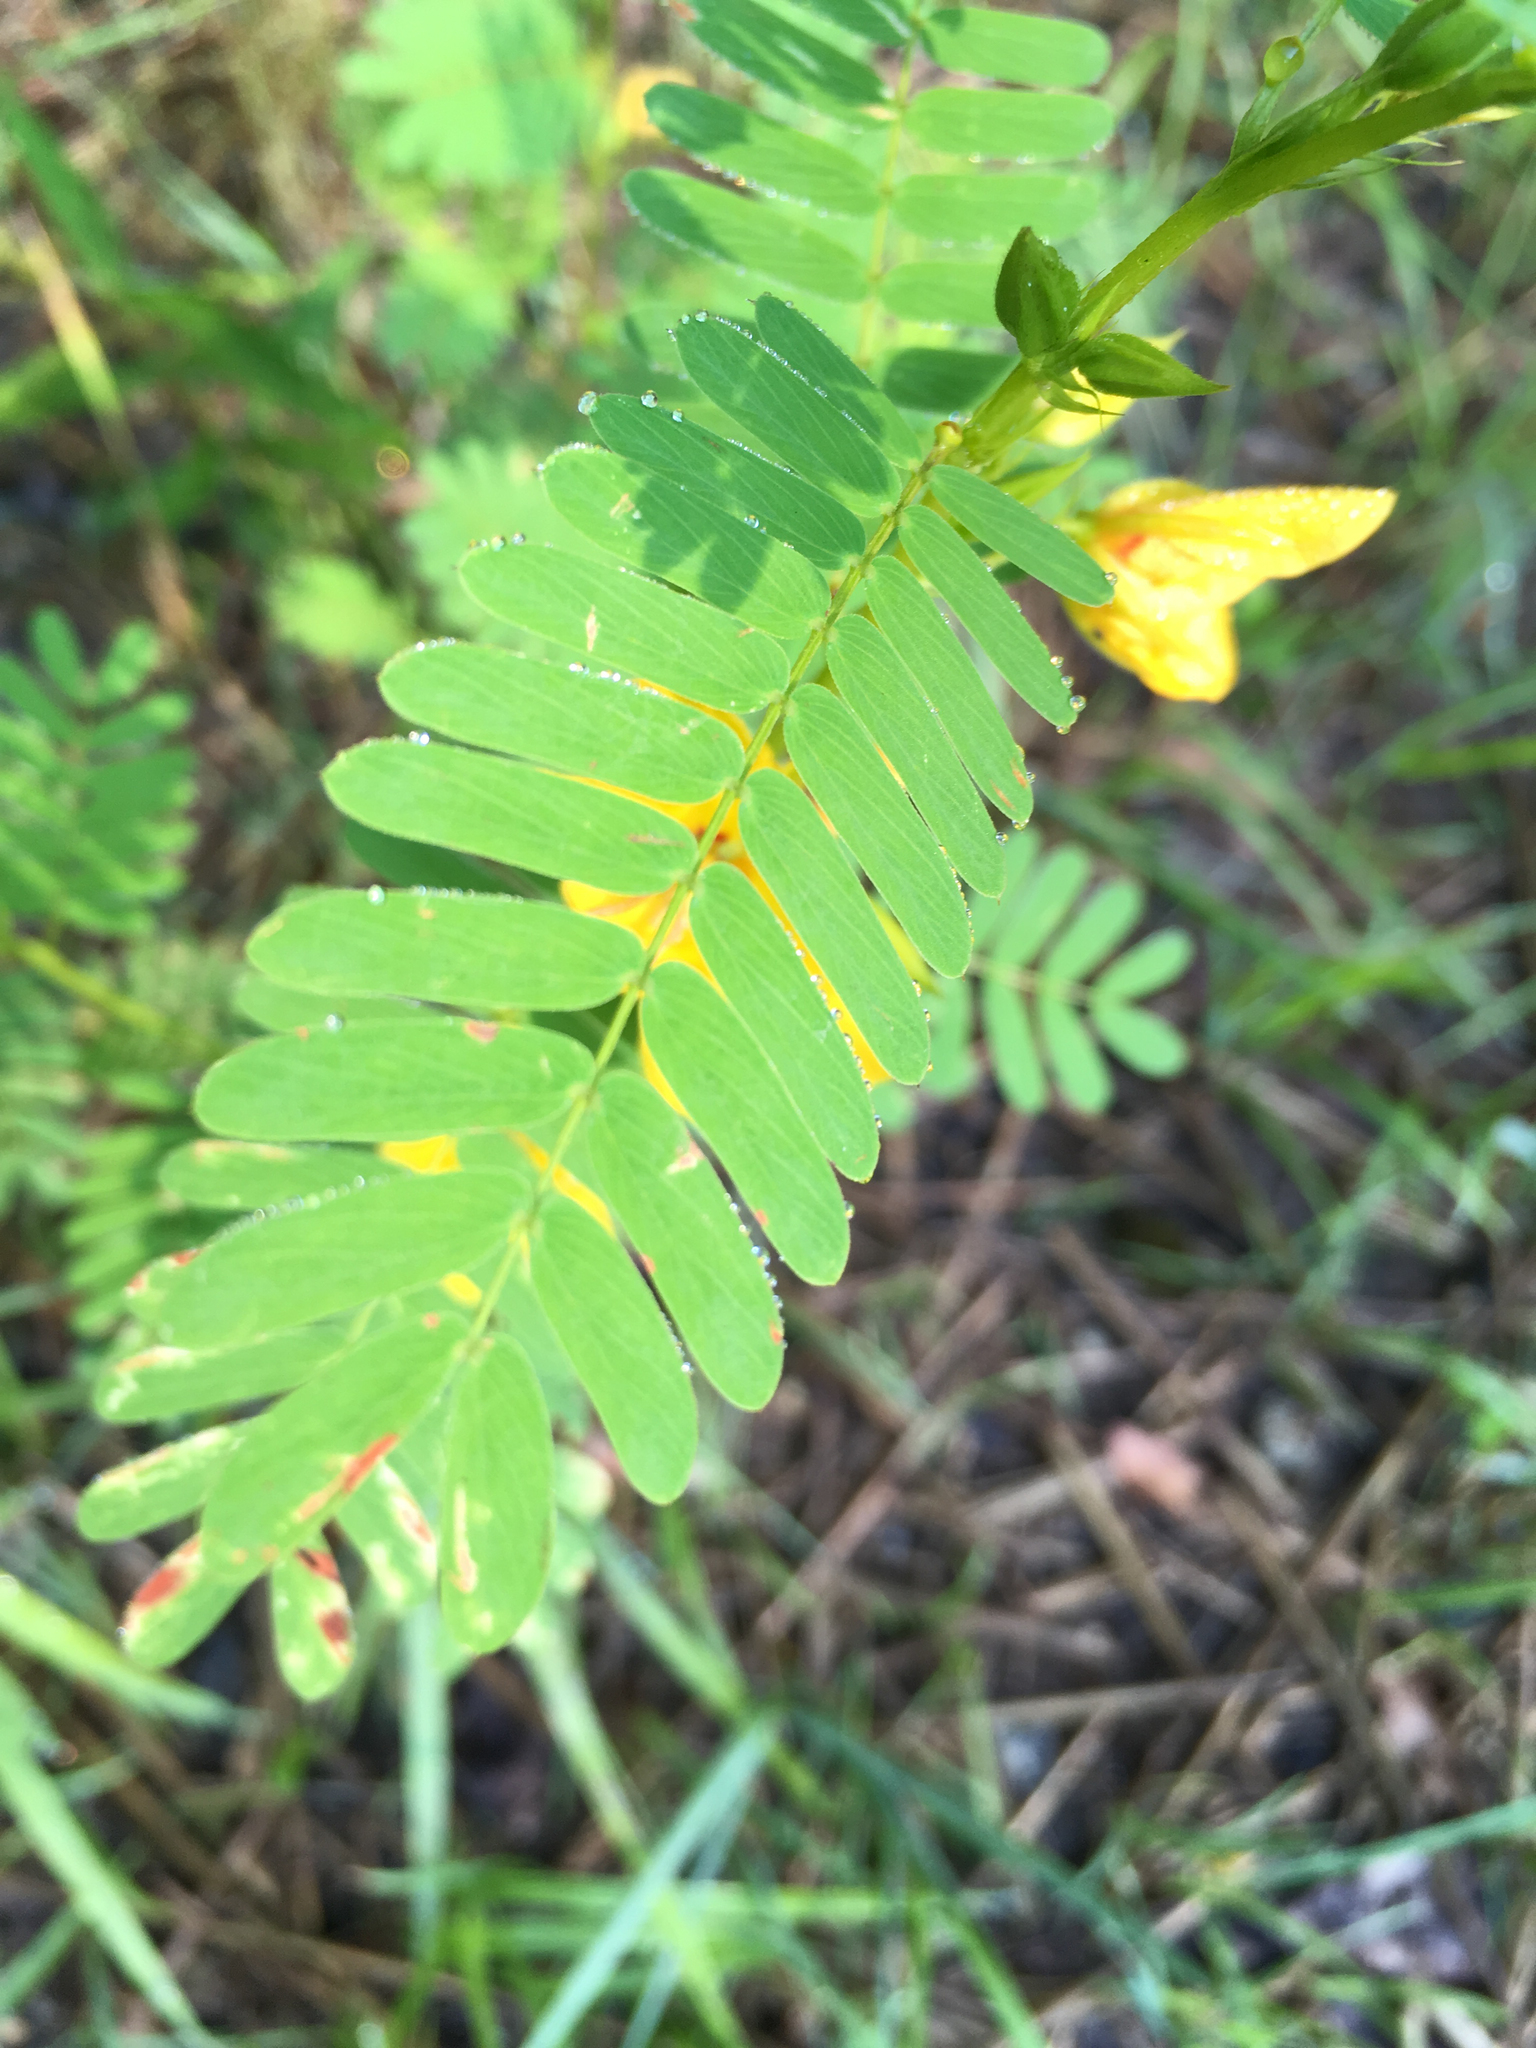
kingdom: Plantae
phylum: Tracheophyta
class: Magnoliopsida
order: Fabales
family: Fabaceae
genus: Chamaecrista
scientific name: Chamaecrista fasciculata
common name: Golden cassia
